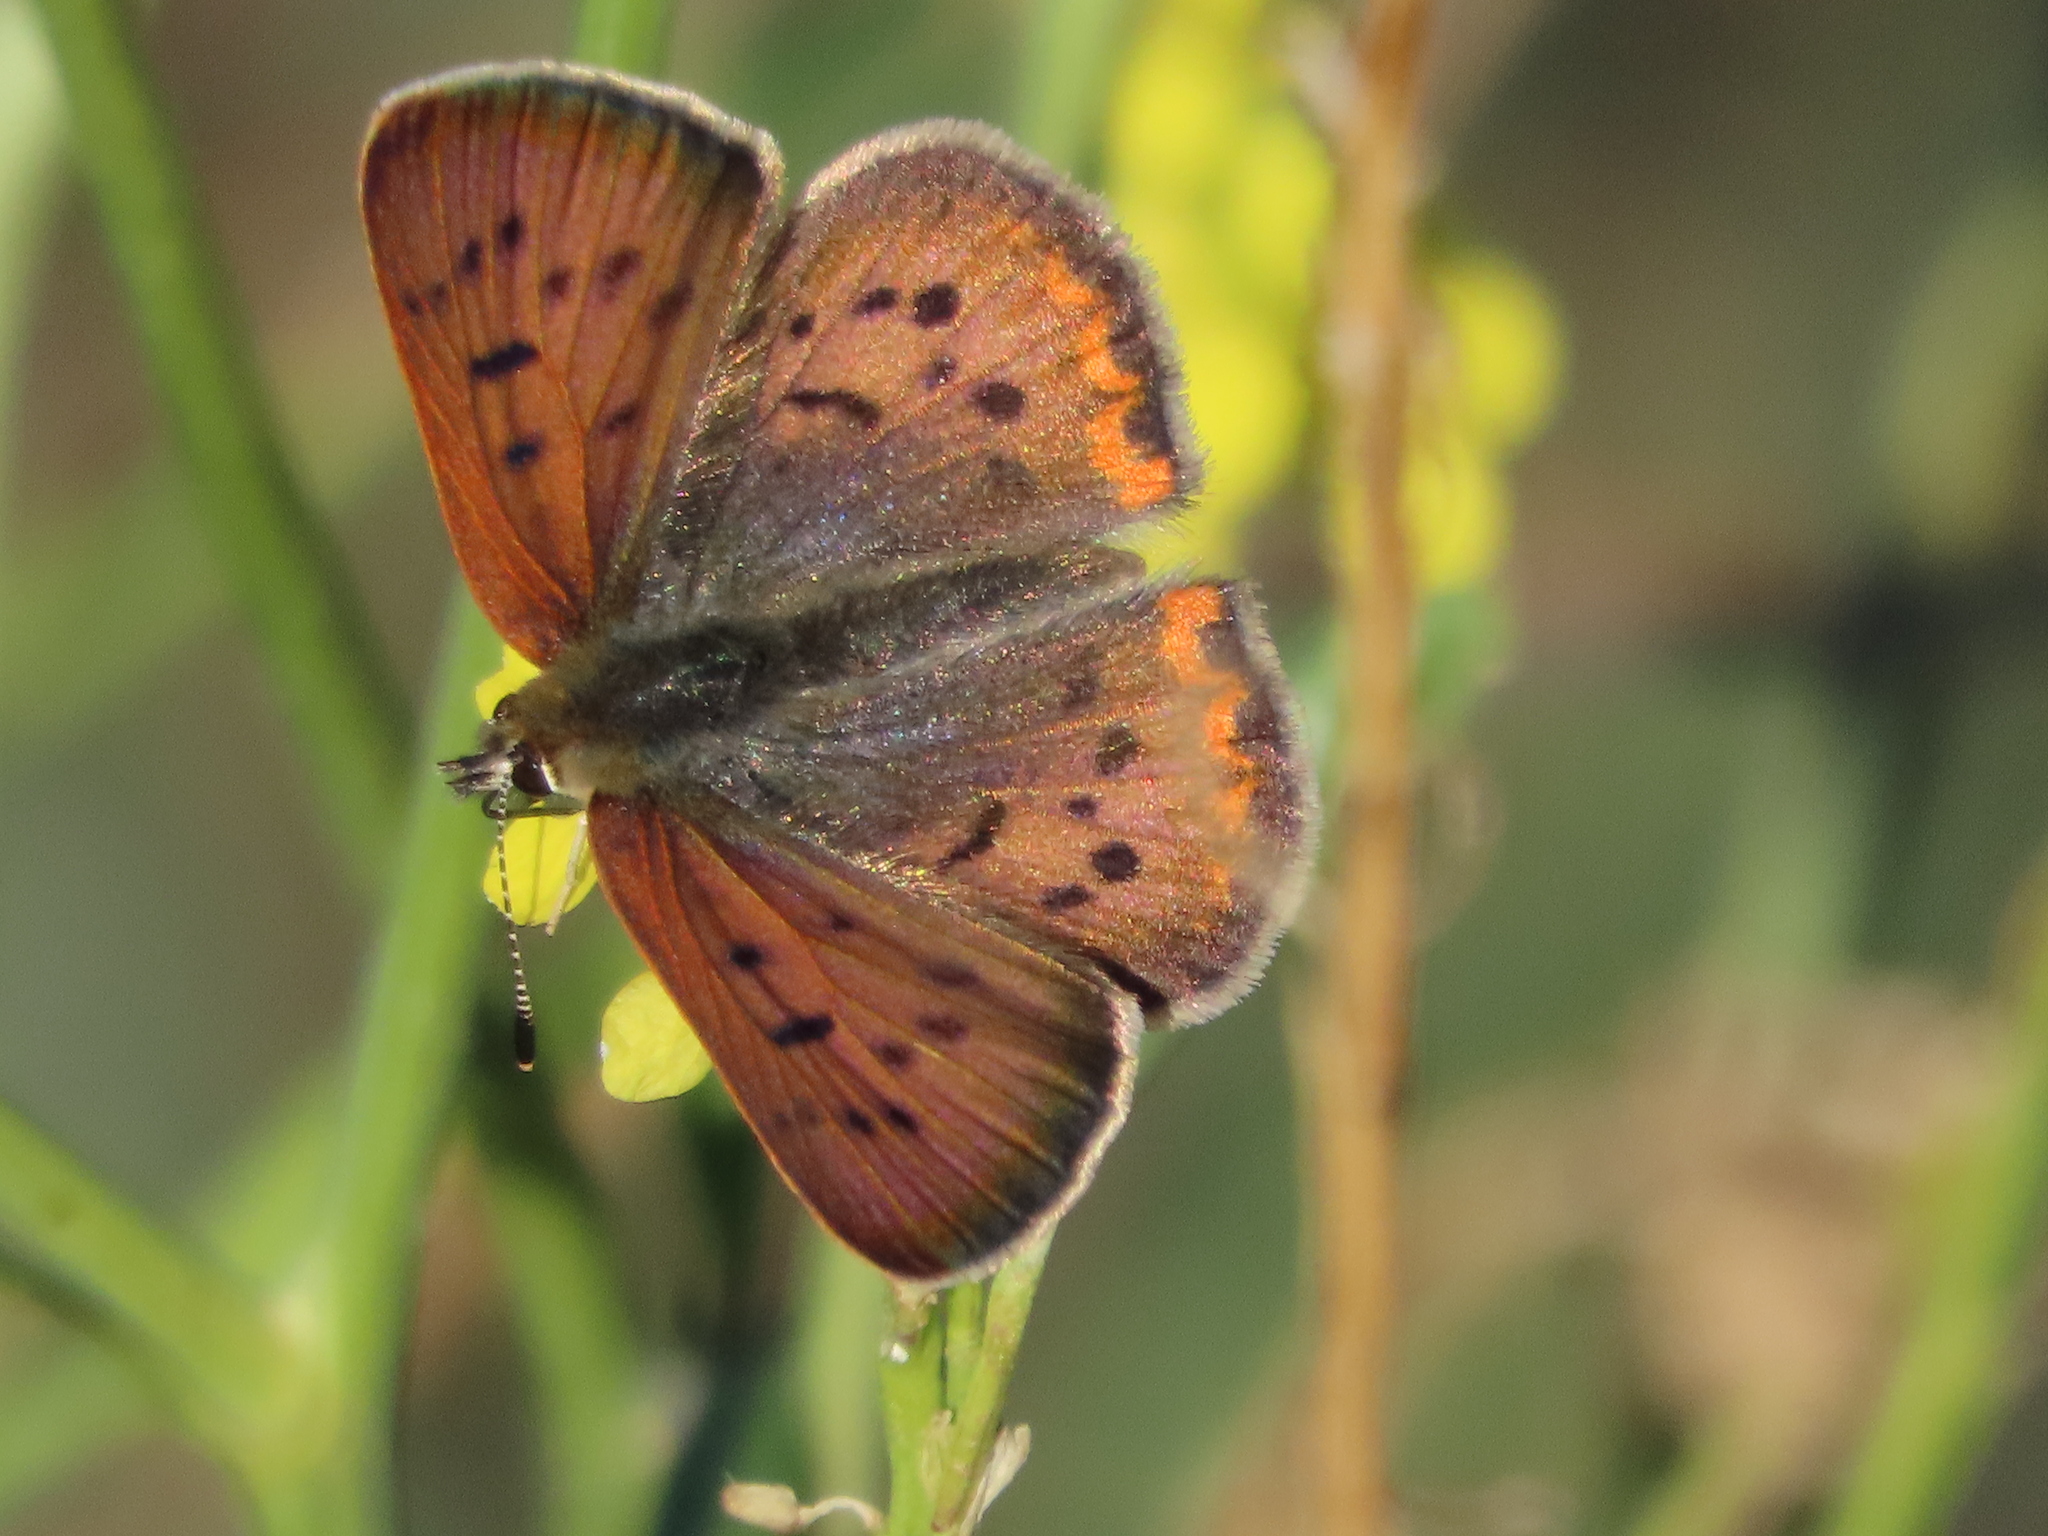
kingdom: Animalia
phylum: Arthropoda
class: Insecta
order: Lepidoptera
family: Lycaenidae
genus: Tharsalea
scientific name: Tharsalea helloides
